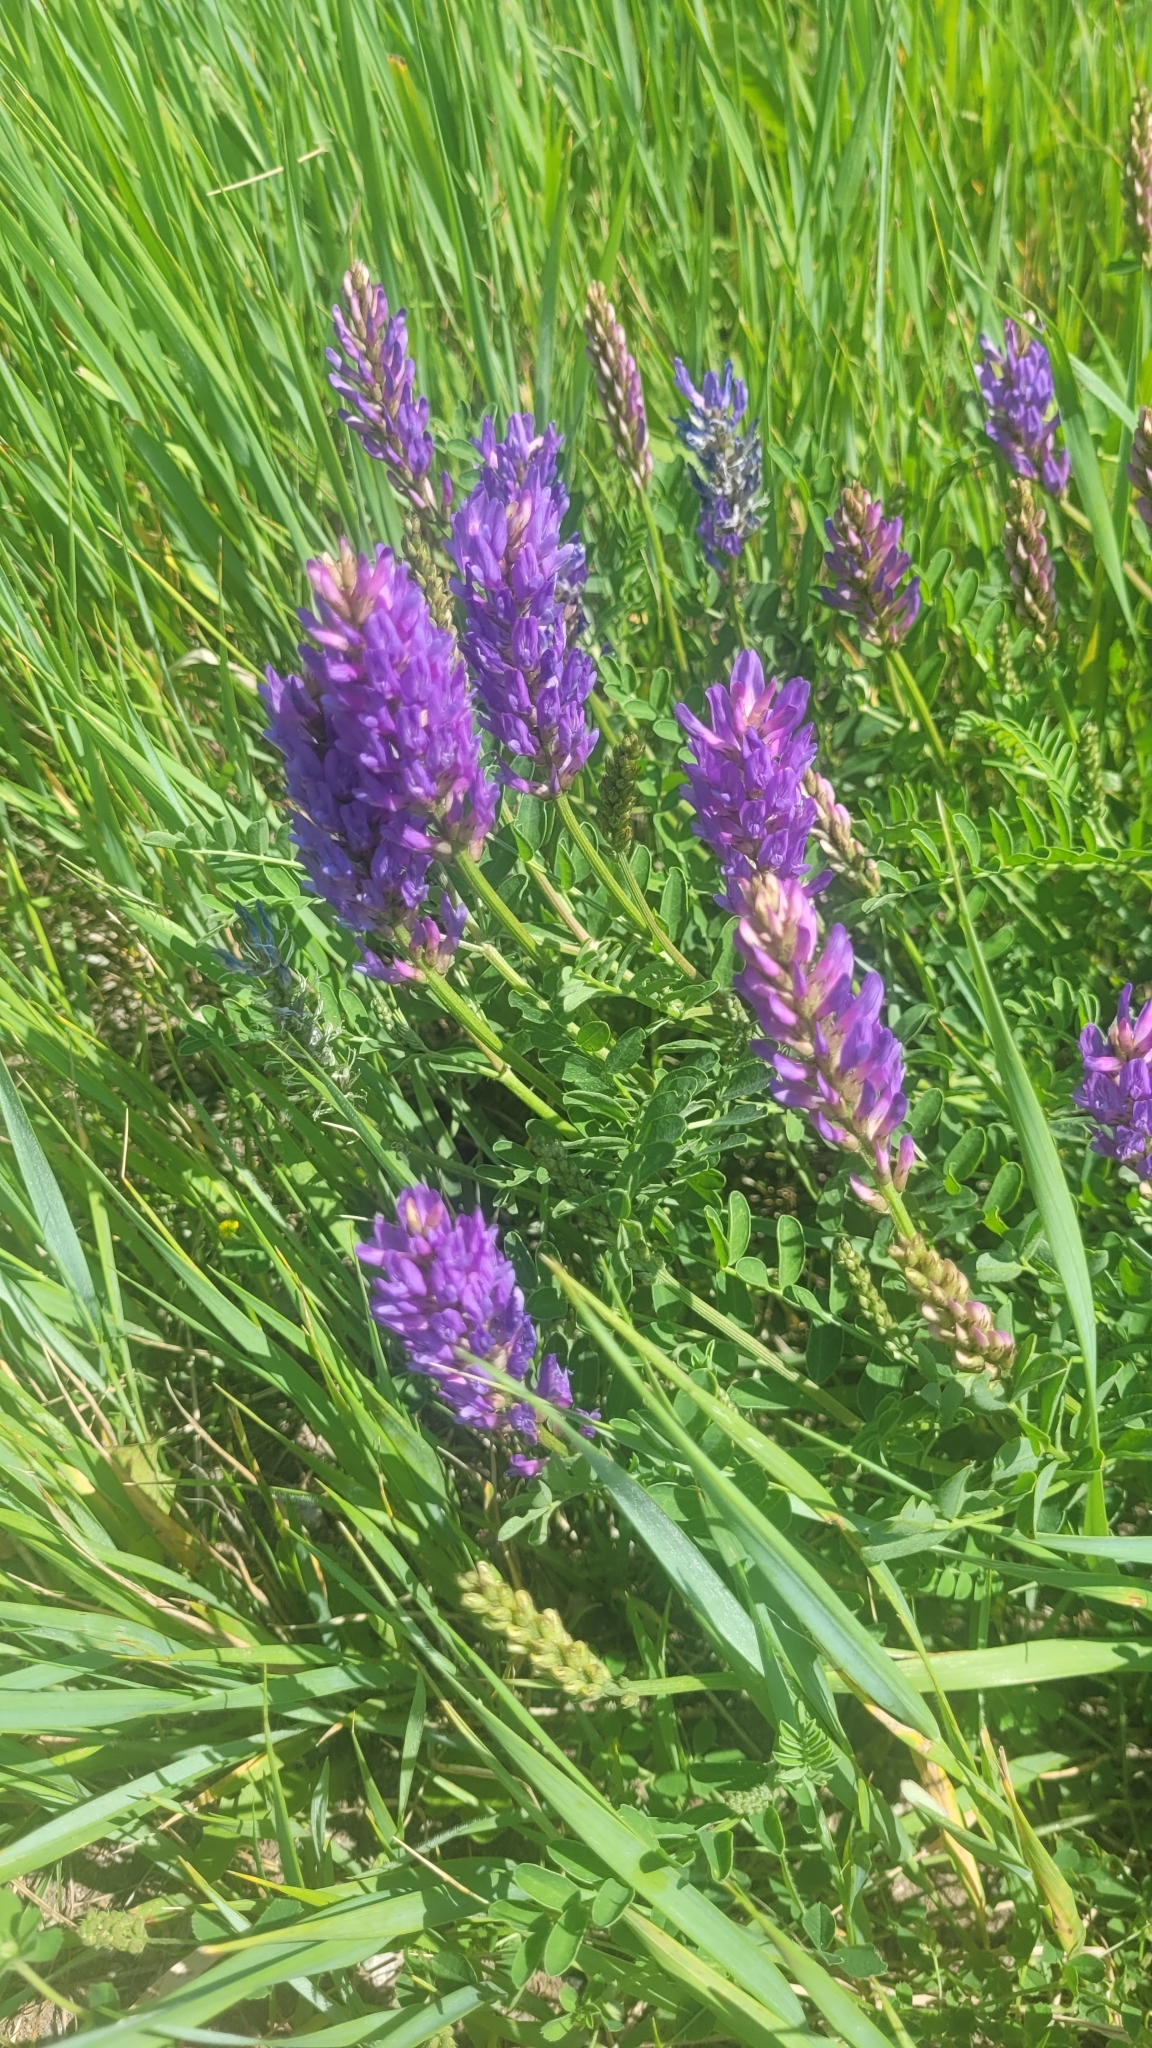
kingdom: Plantae
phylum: Tracheophyta
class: Magnoliopsida
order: Fabales
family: Fabaceae
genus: Astragalus
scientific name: Astragalus laxmannii
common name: Laxmann's milk-vetch
